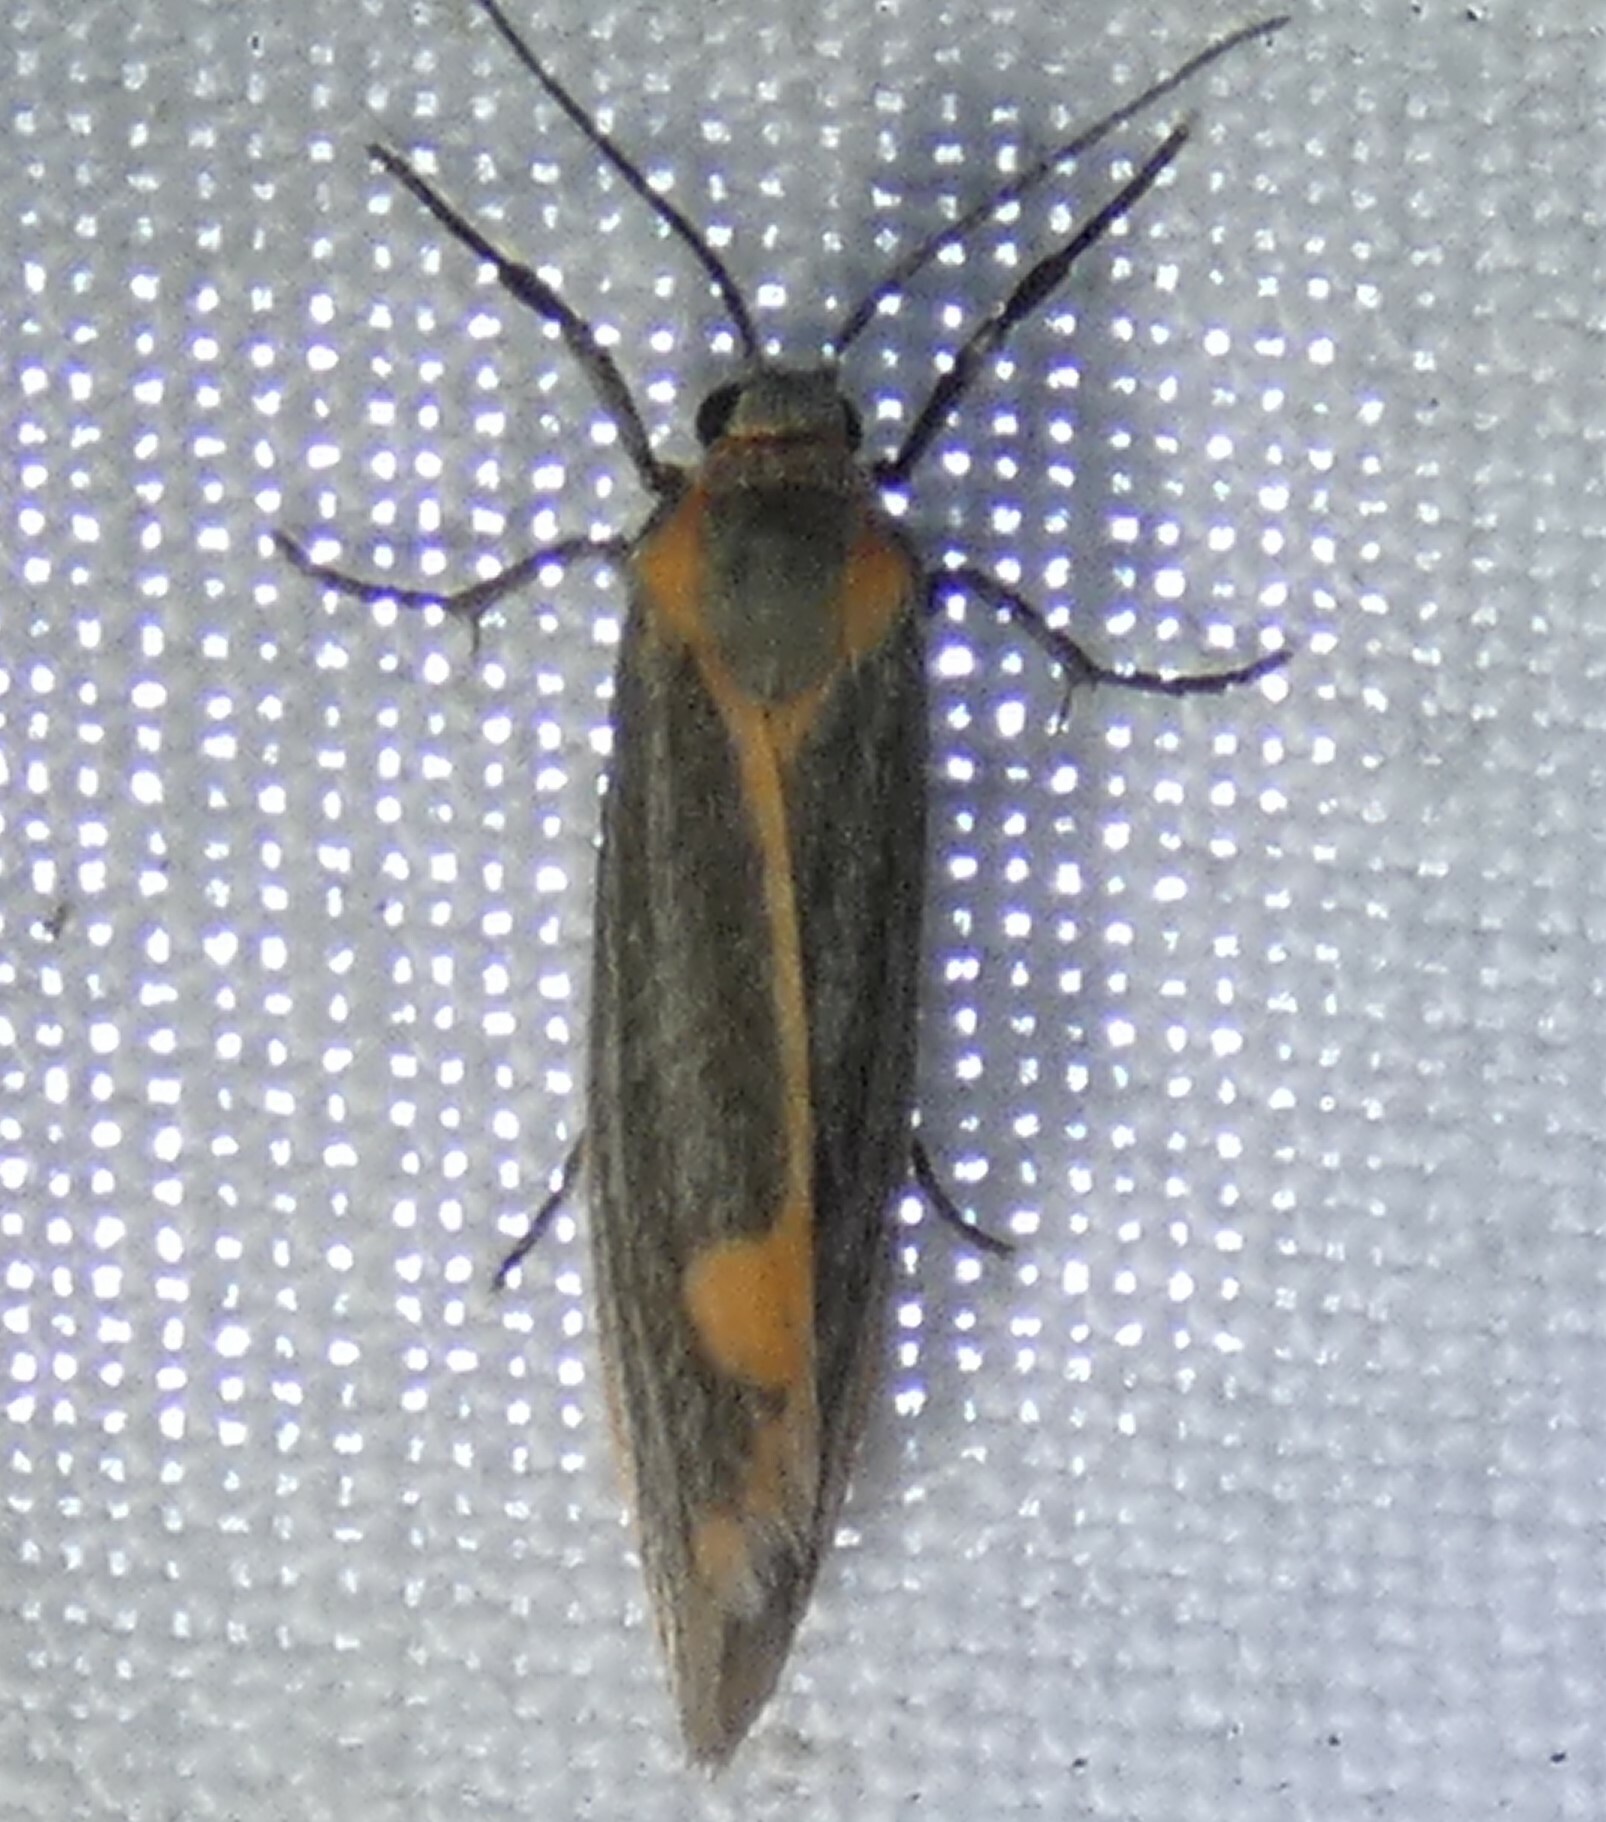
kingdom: Animalia
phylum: Arthropoda
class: Insecta
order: Lepidoptera
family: Erebidae
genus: Cisthene
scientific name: Cisthene striata
